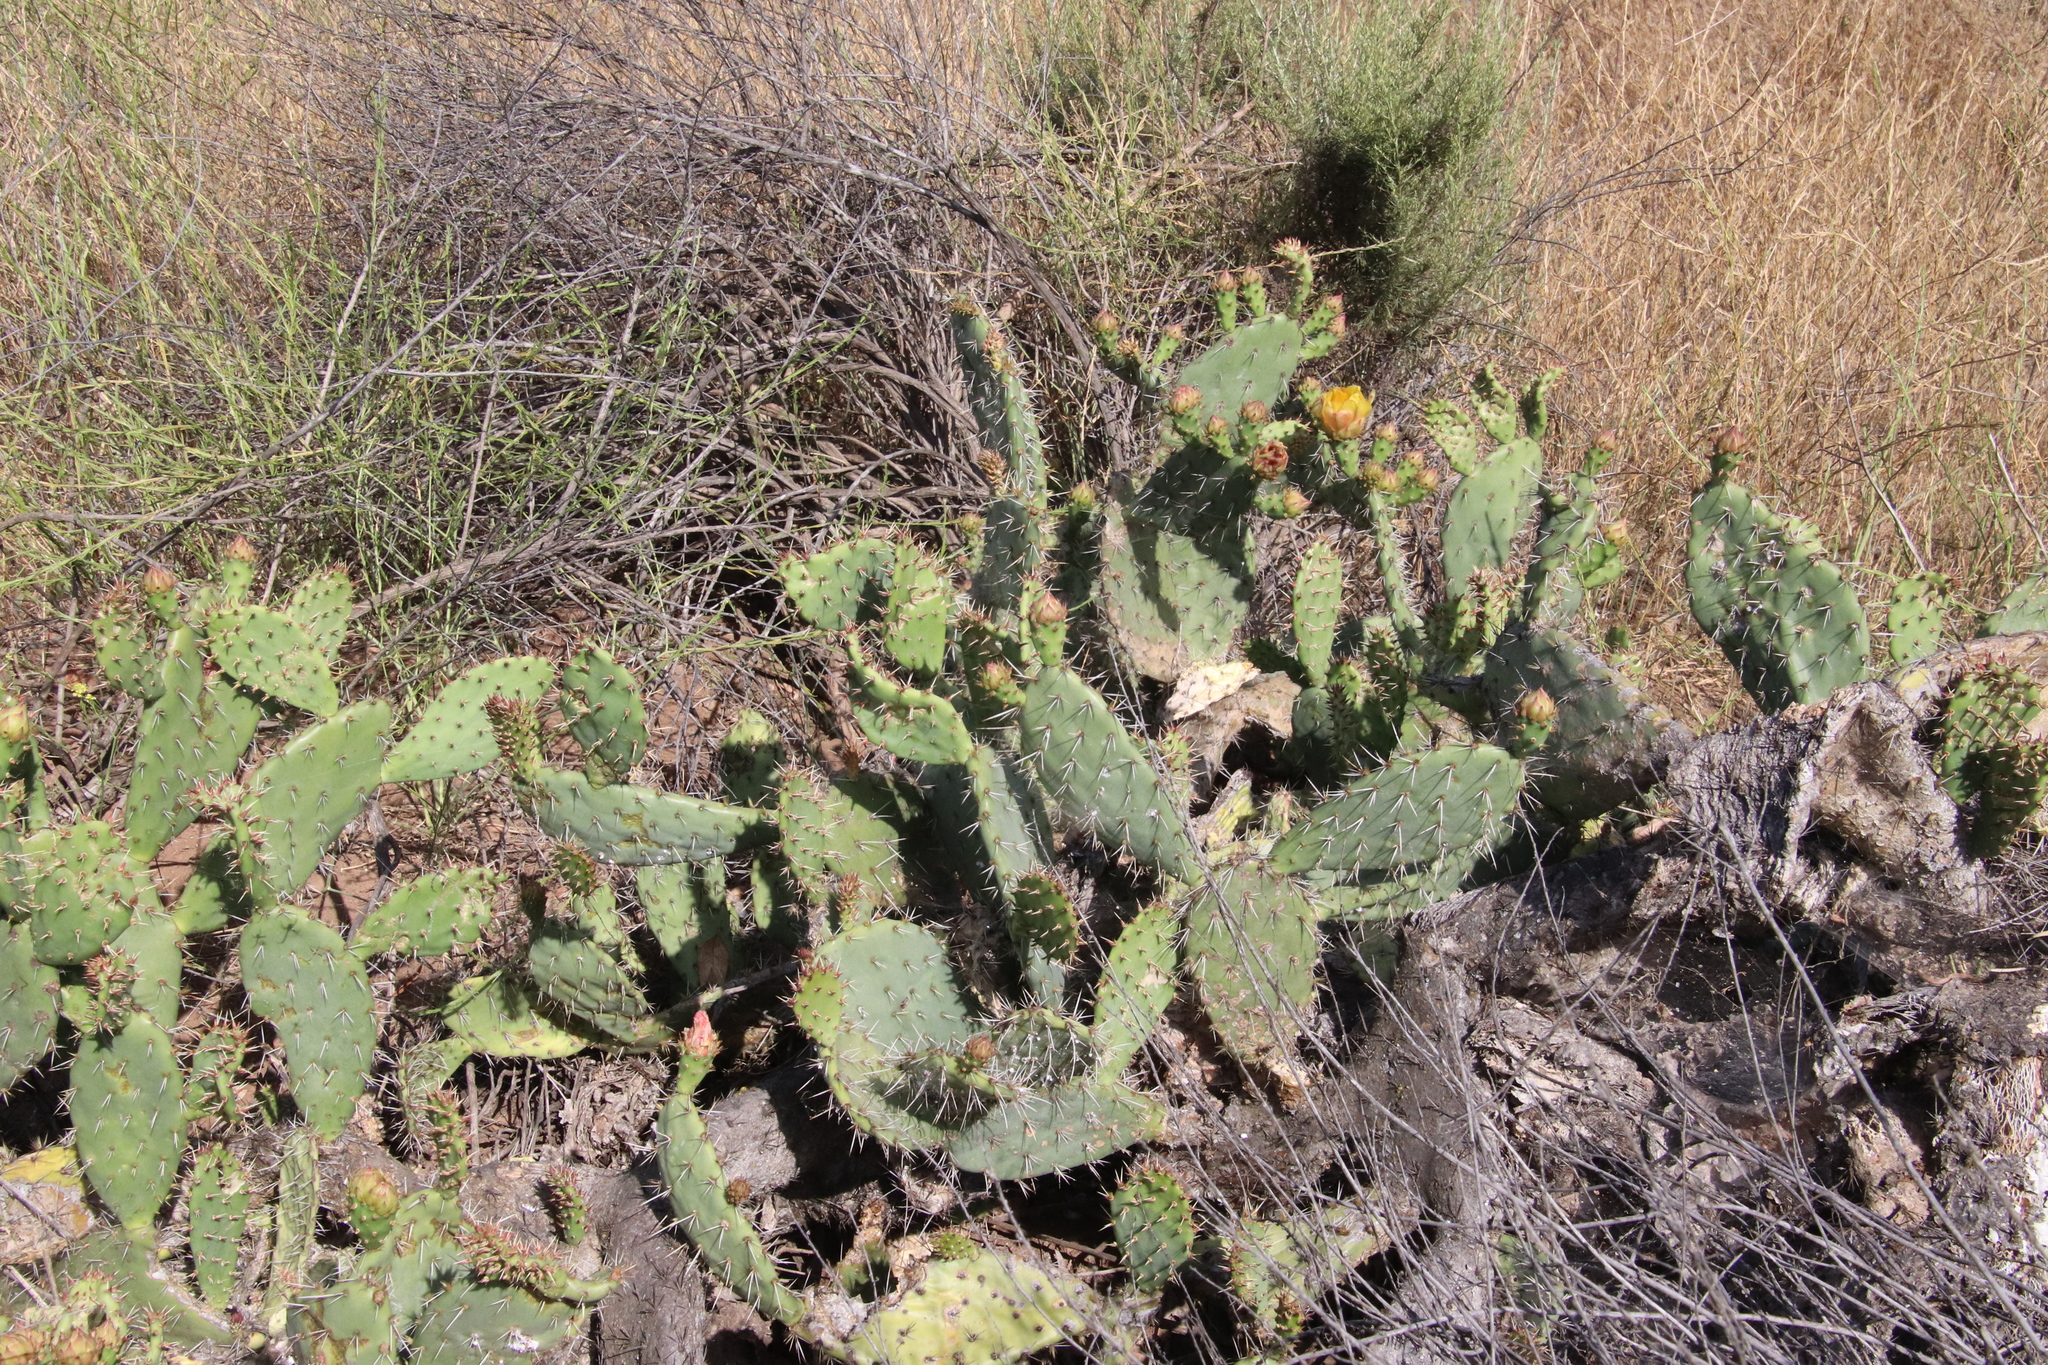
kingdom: Plantae
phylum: Tracheophyta
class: Magnoliopsida
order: Caryophyllales
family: Cactaceae
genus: Opuntia
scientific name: Opuntia littoralis
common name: Coastal prickly-pear
